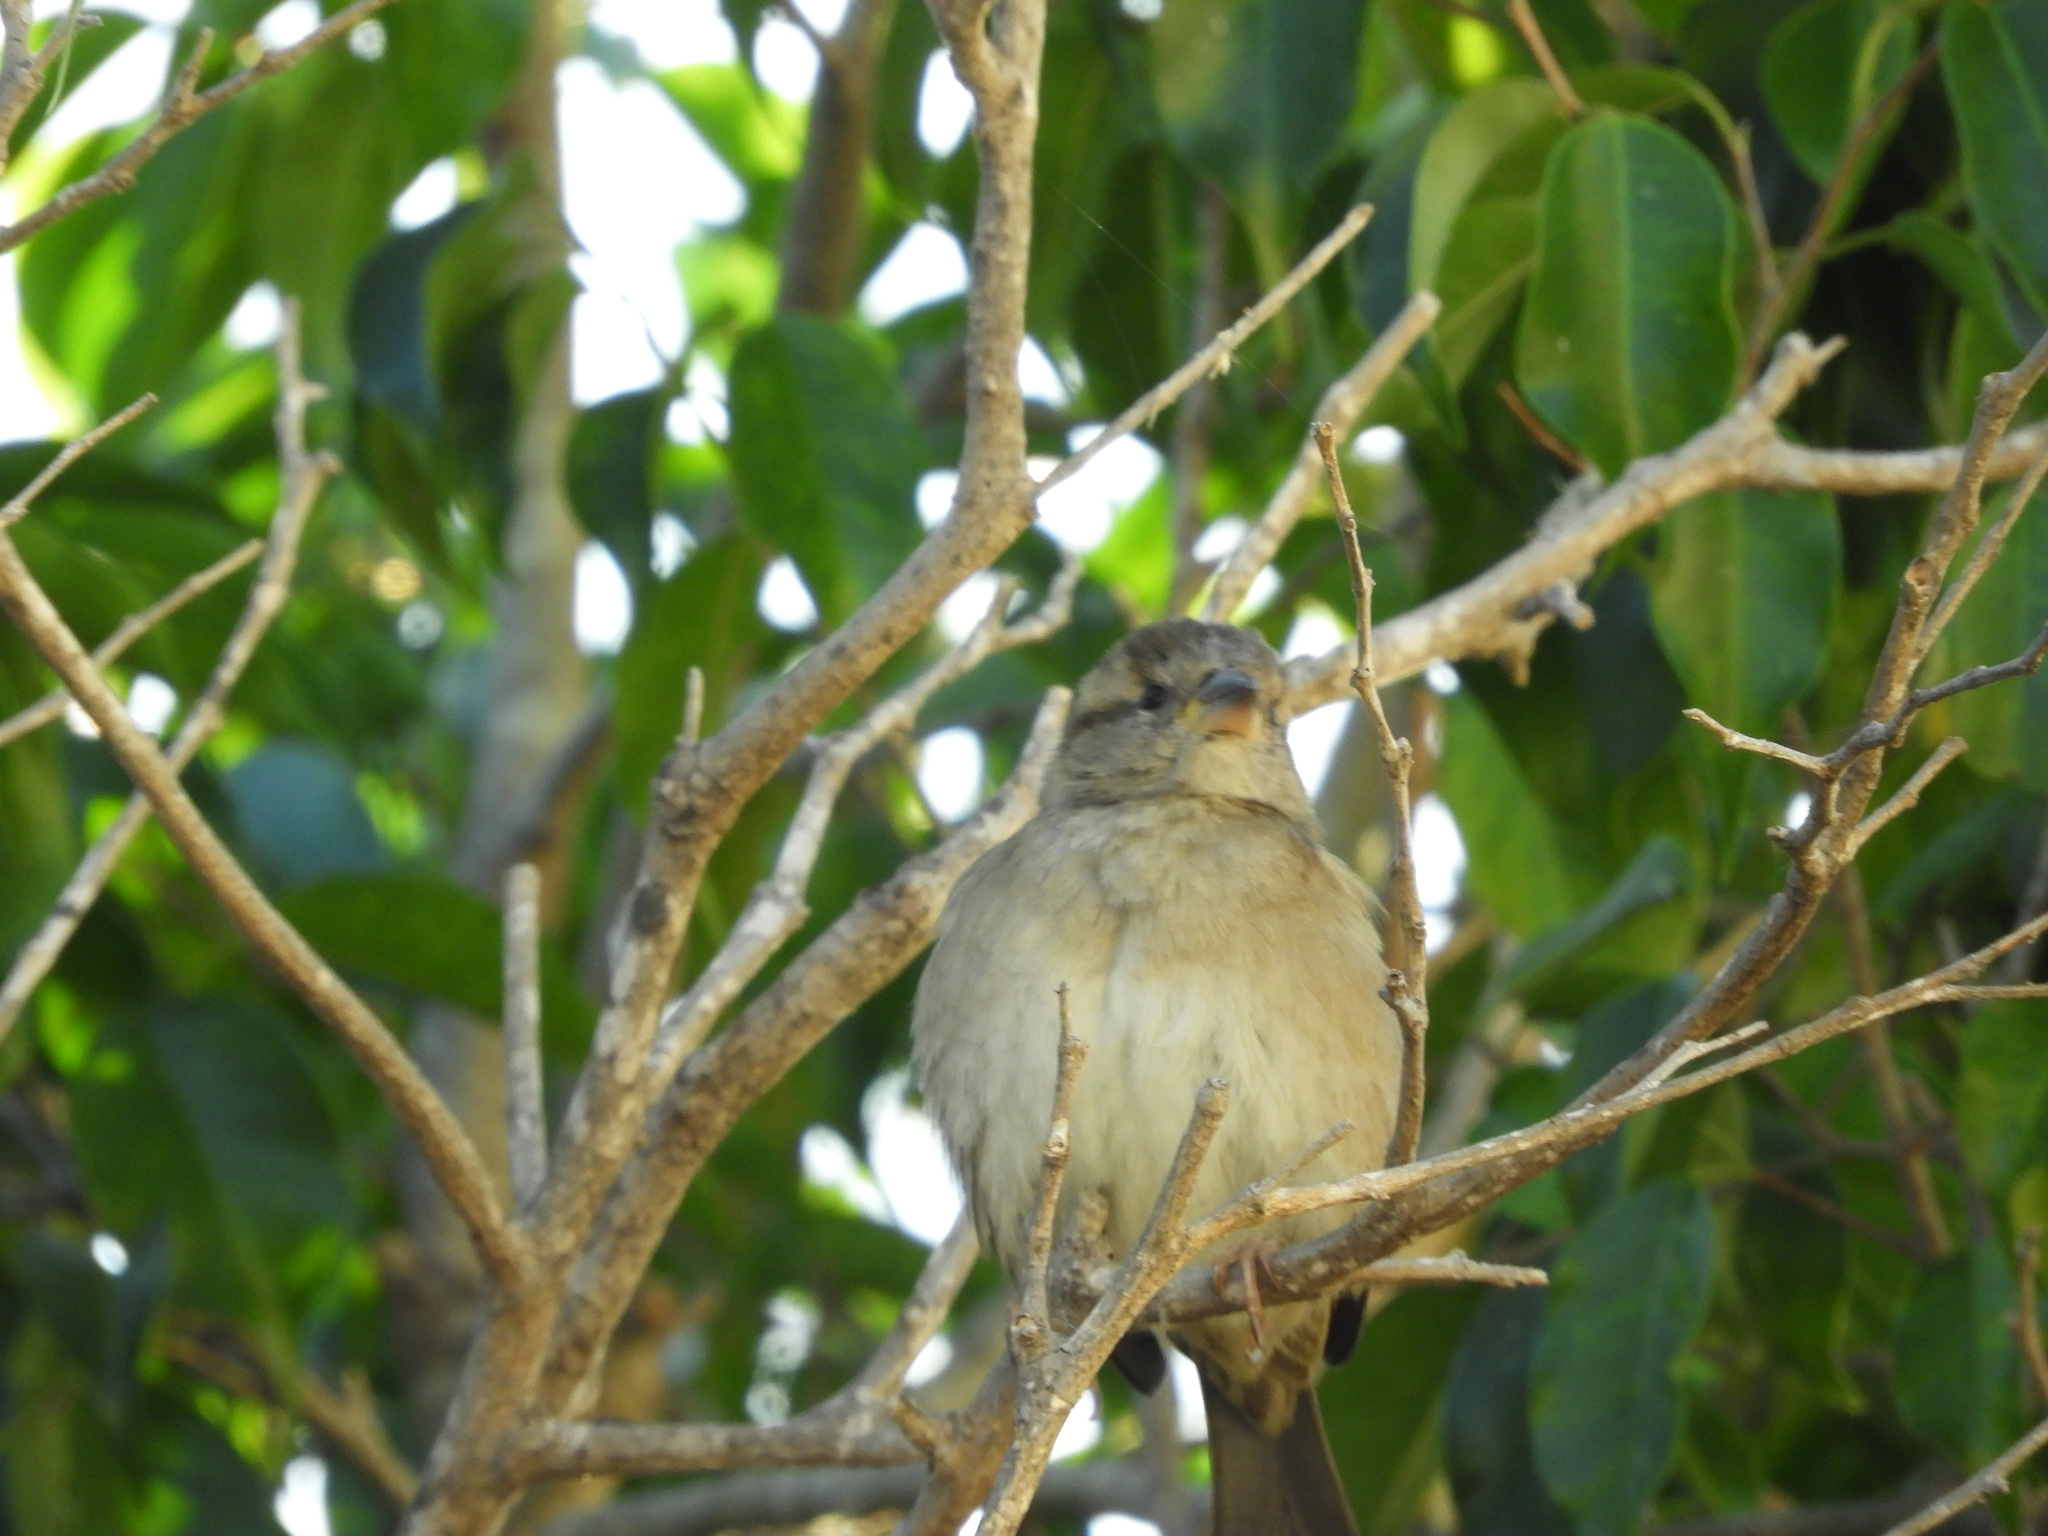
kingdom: Animalia
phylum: Chordata
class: Aves
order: Passeriformes
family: Passeridae
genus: Passer
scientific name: Passer domesticus
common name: House sparrow
